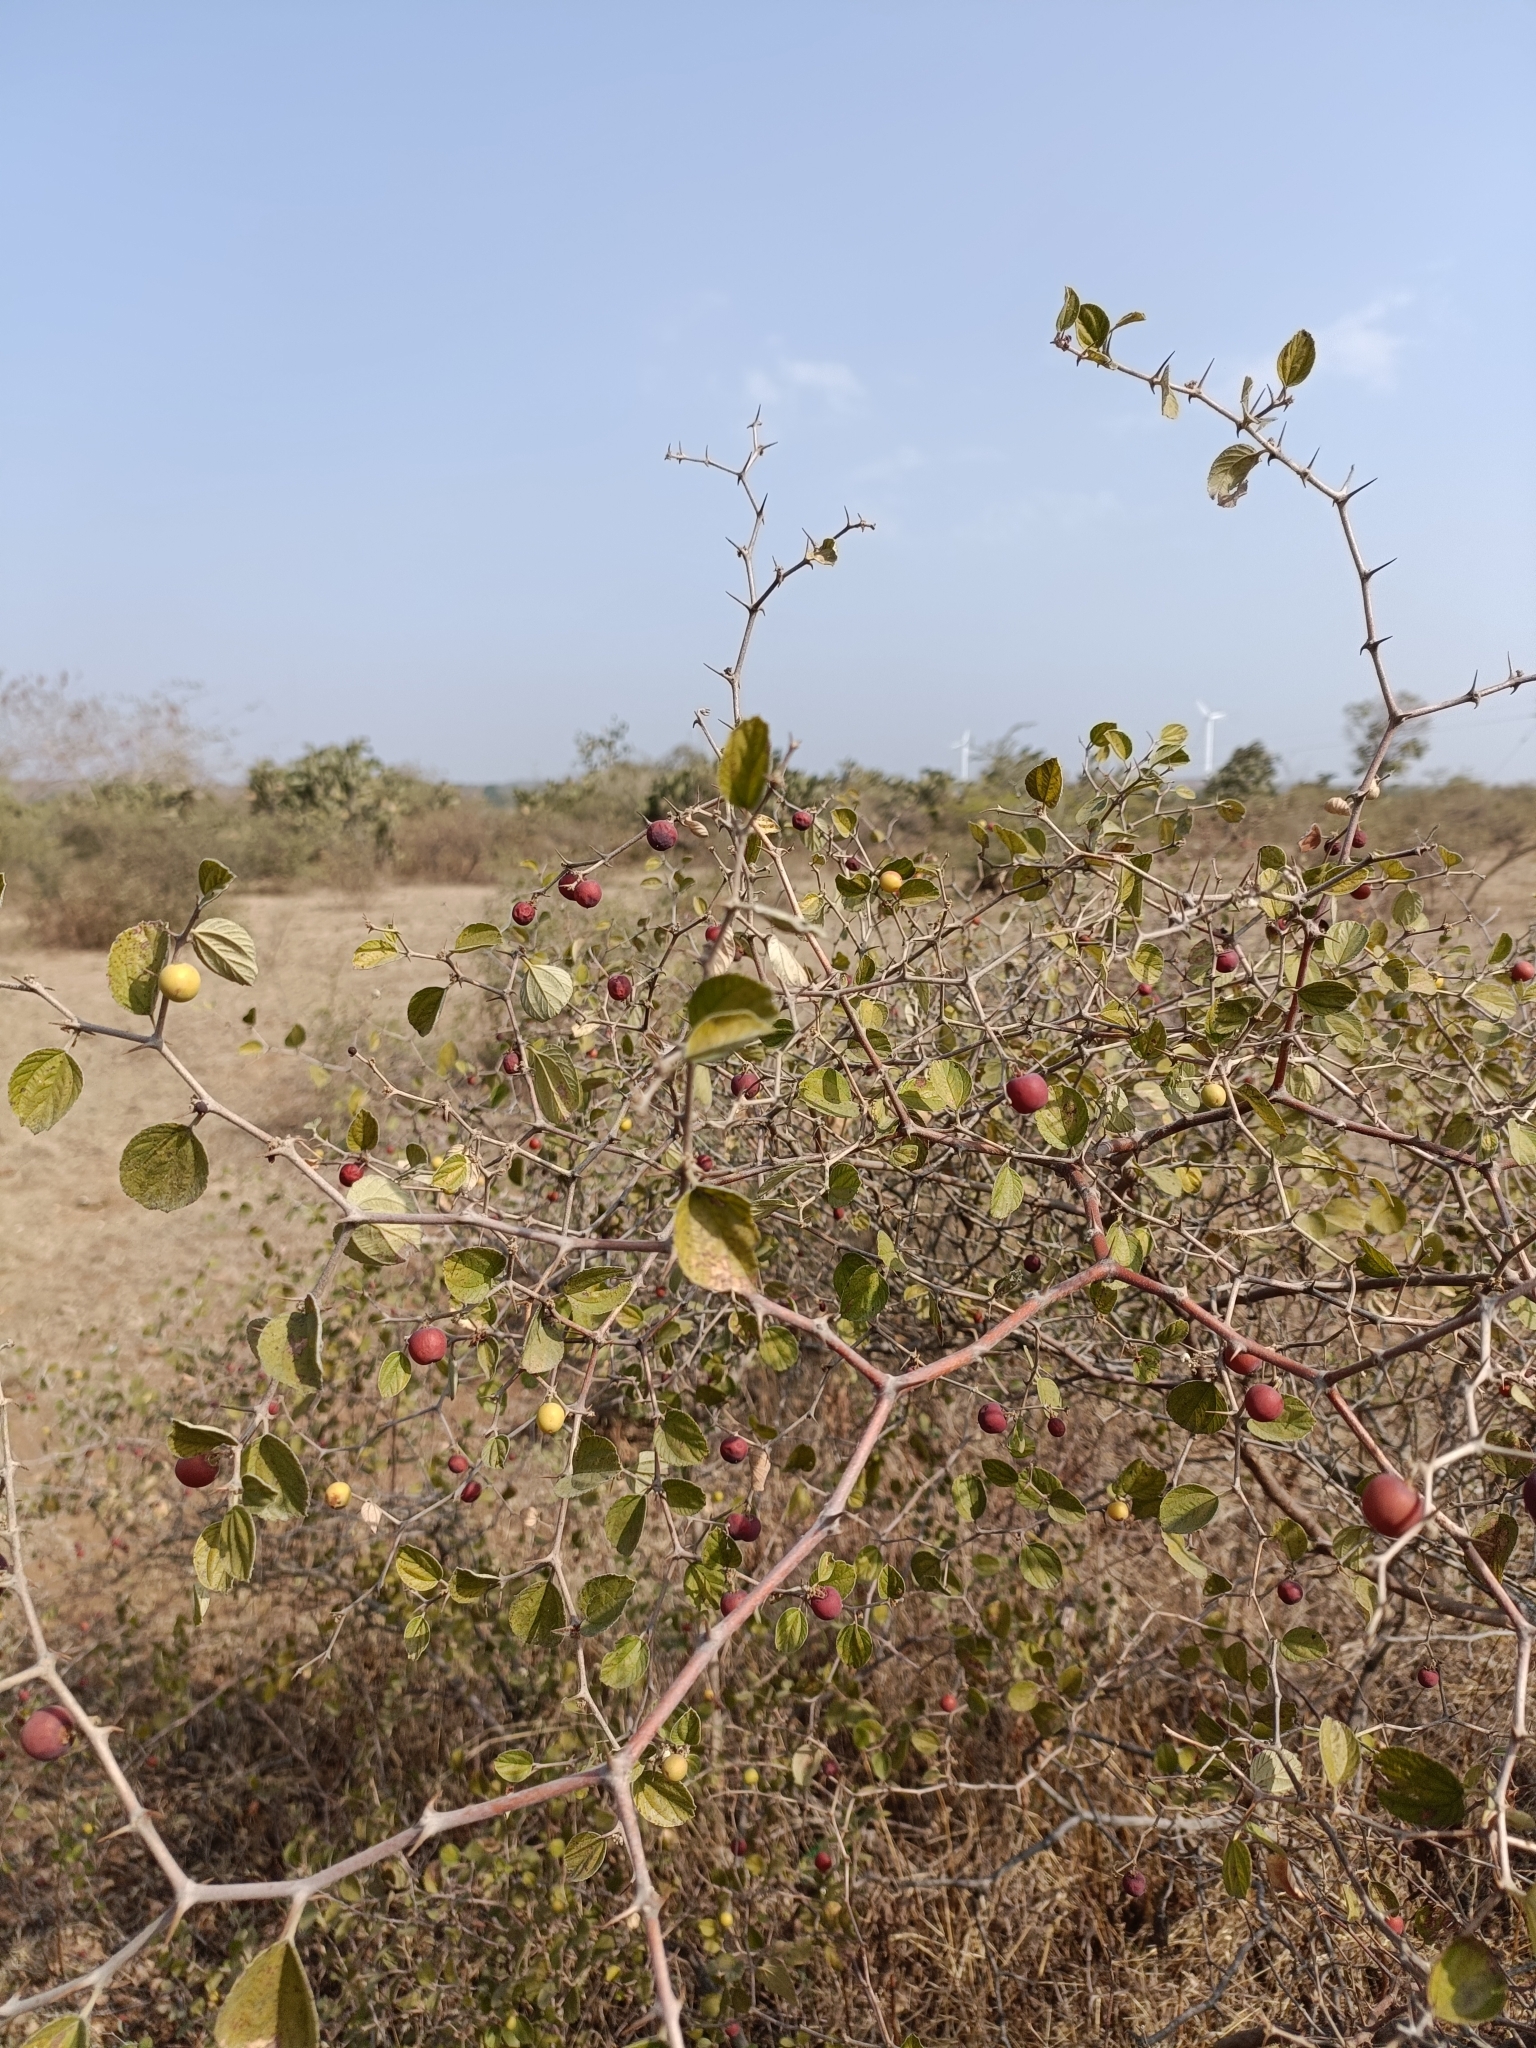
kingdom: Plantae
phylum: Tracheophyta
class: Magnoliopsida
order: Rosales
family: Rhamnaceae
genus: Ziziphus
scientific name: Ziziphus nummularia
